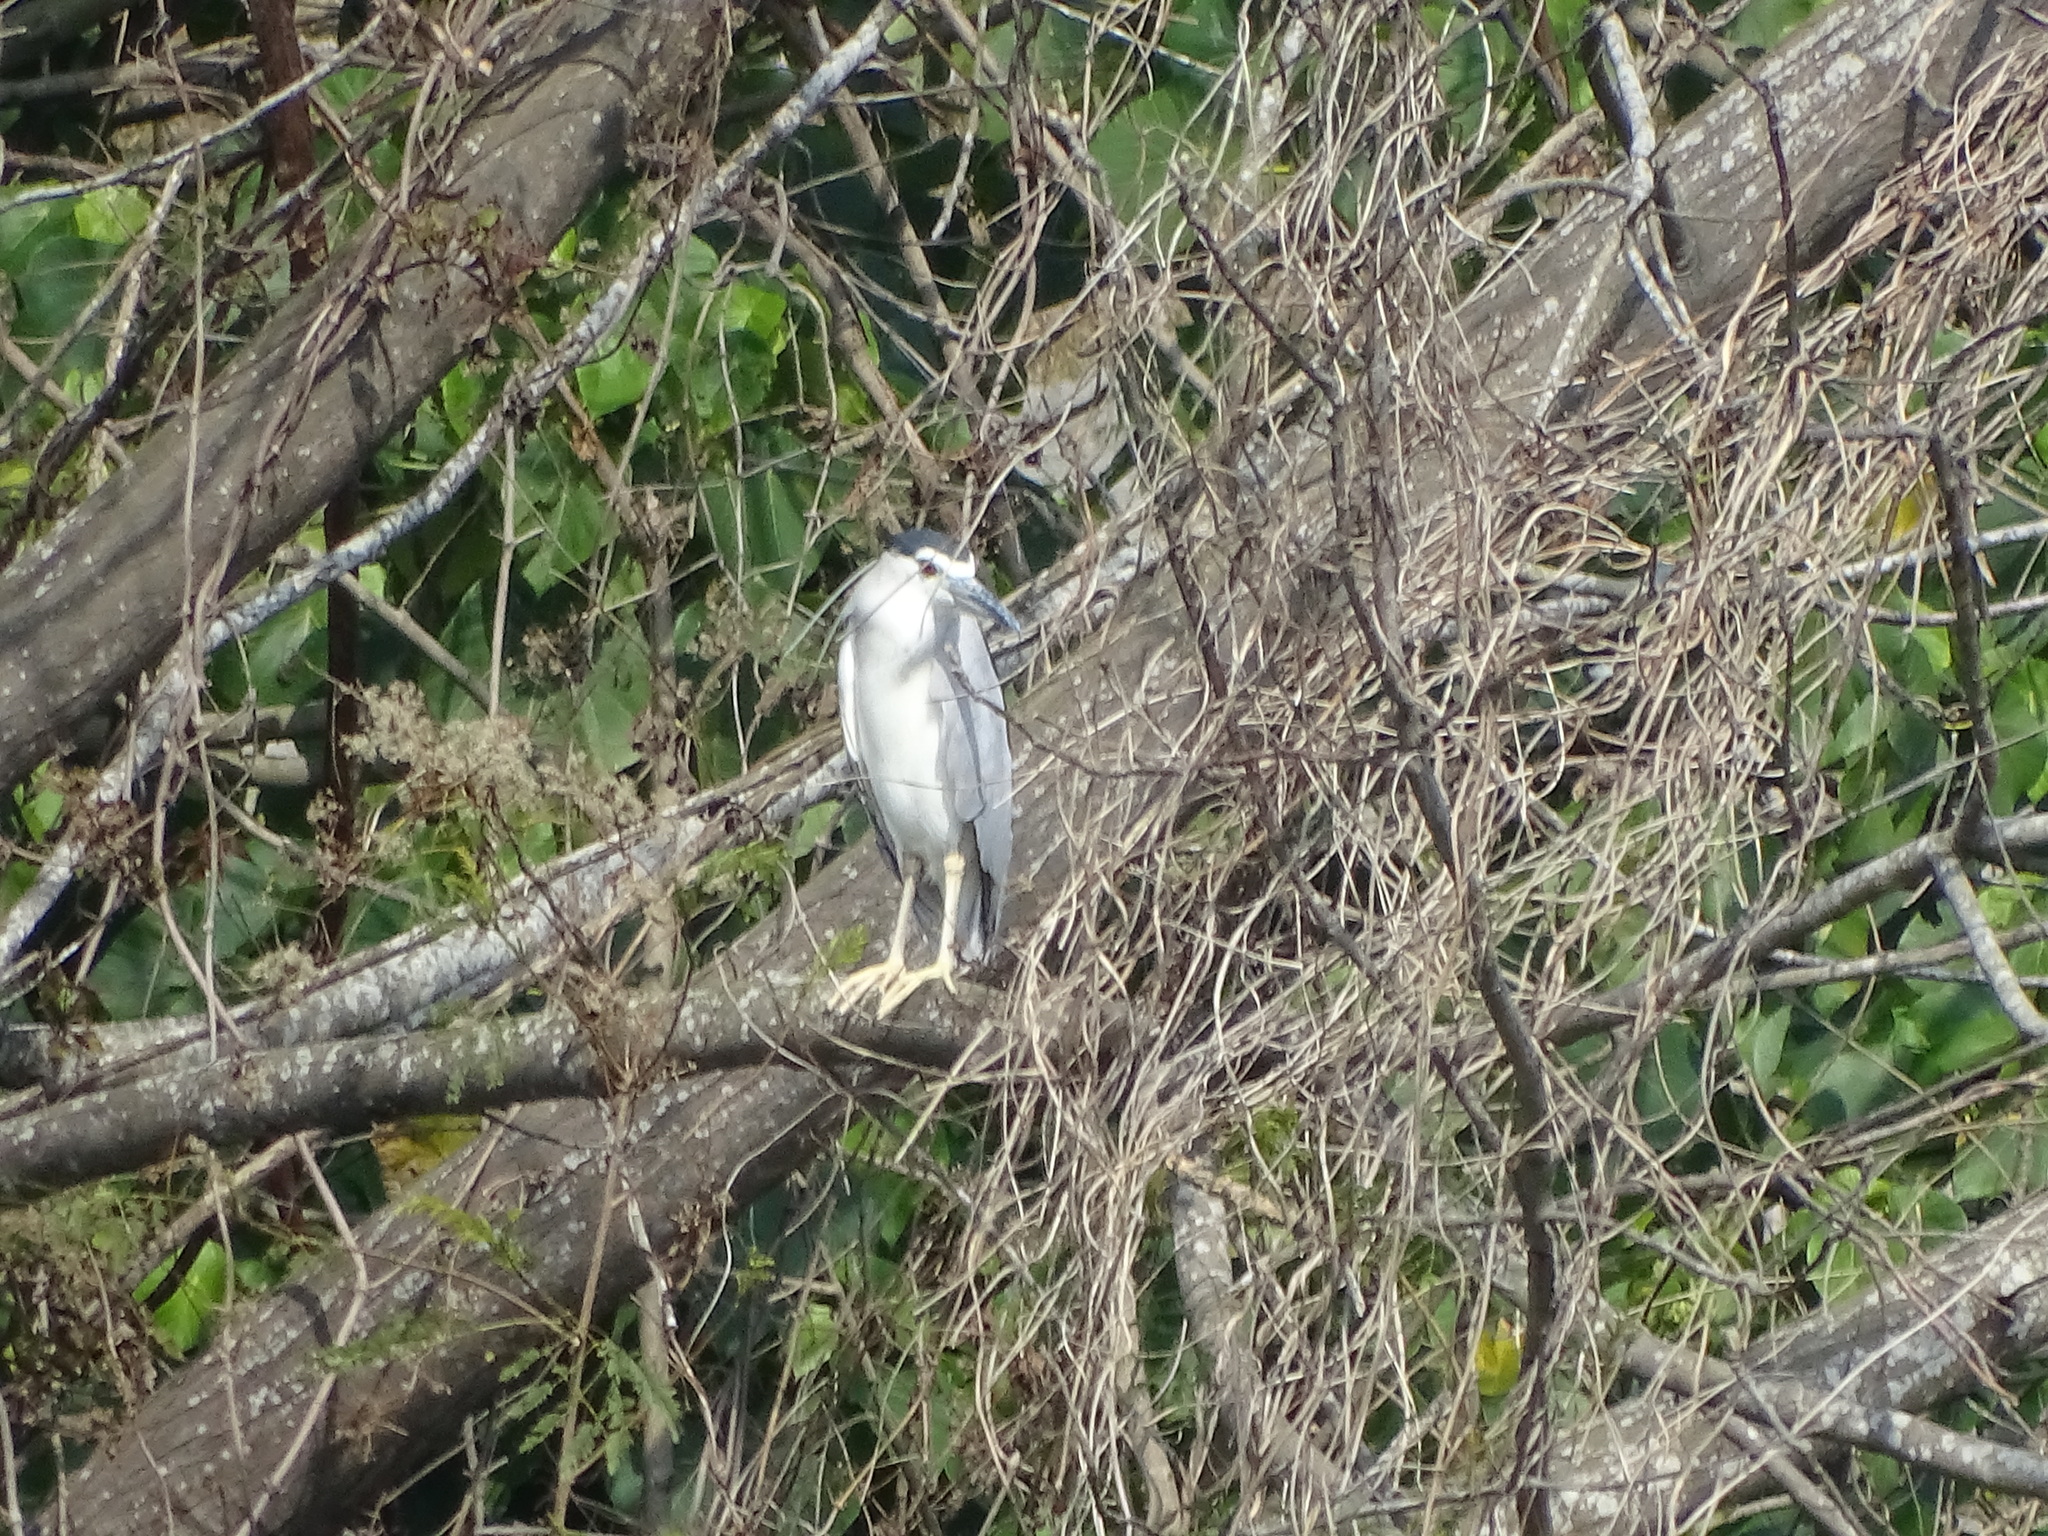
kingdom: Animalia
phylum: Chordata
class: Aves
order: Pelecaniformes
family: Ardeidae
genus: Nycticorax
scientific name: Nycticorax nycticorax
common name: Black-crowned night heron
